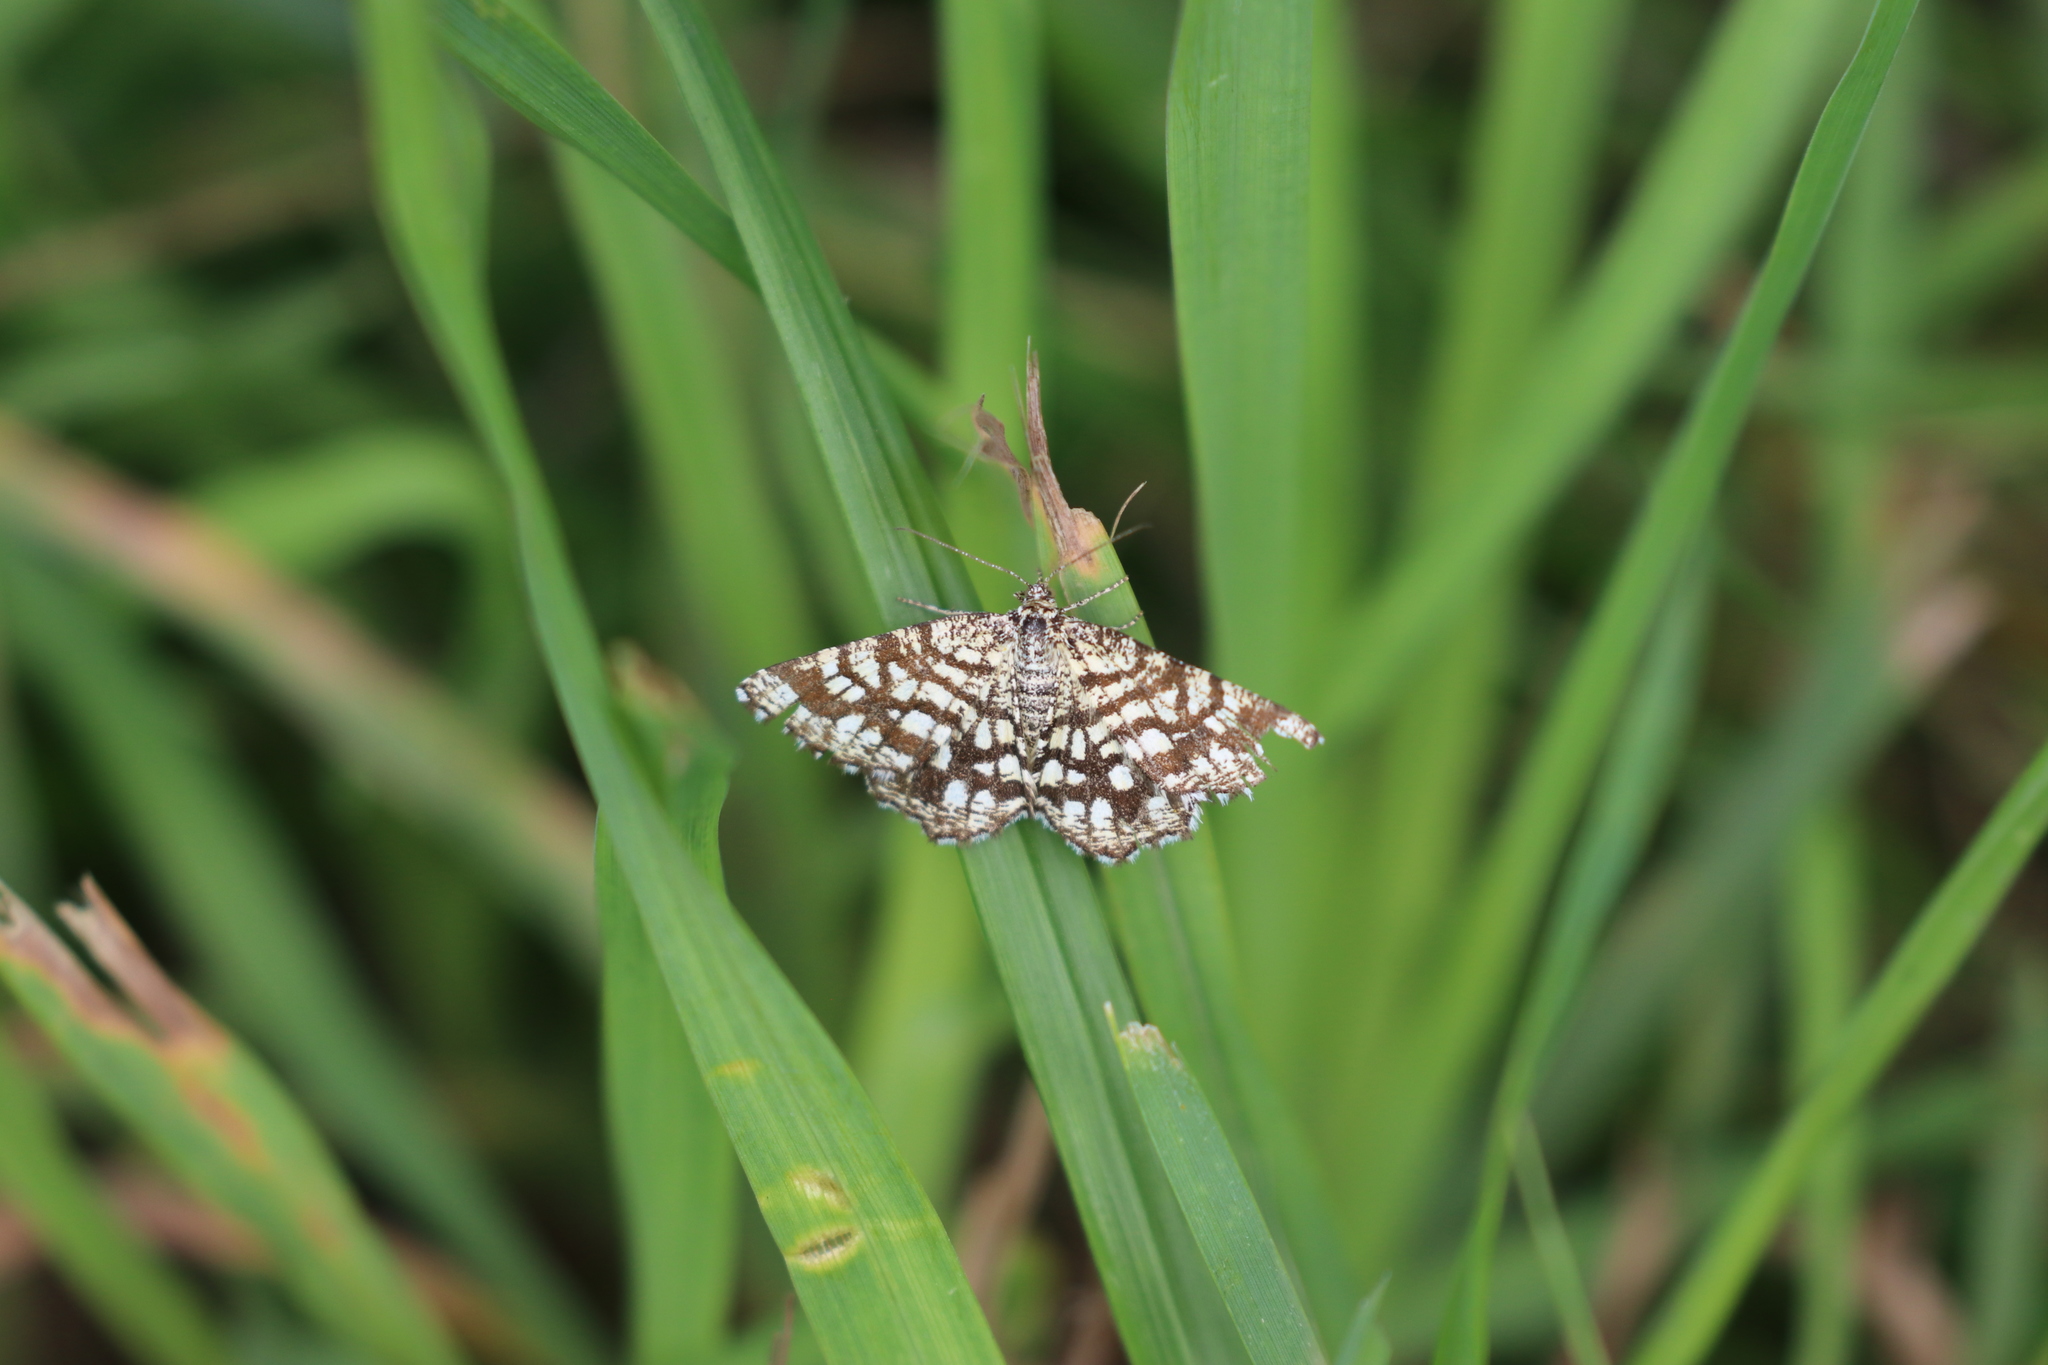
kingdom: Animalia
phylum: Arthropoda
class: Insecta
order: Lepidoptera
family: Geometridae
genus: Chiasmia
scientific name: Chiasmia clathrata
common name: Latticed heath
